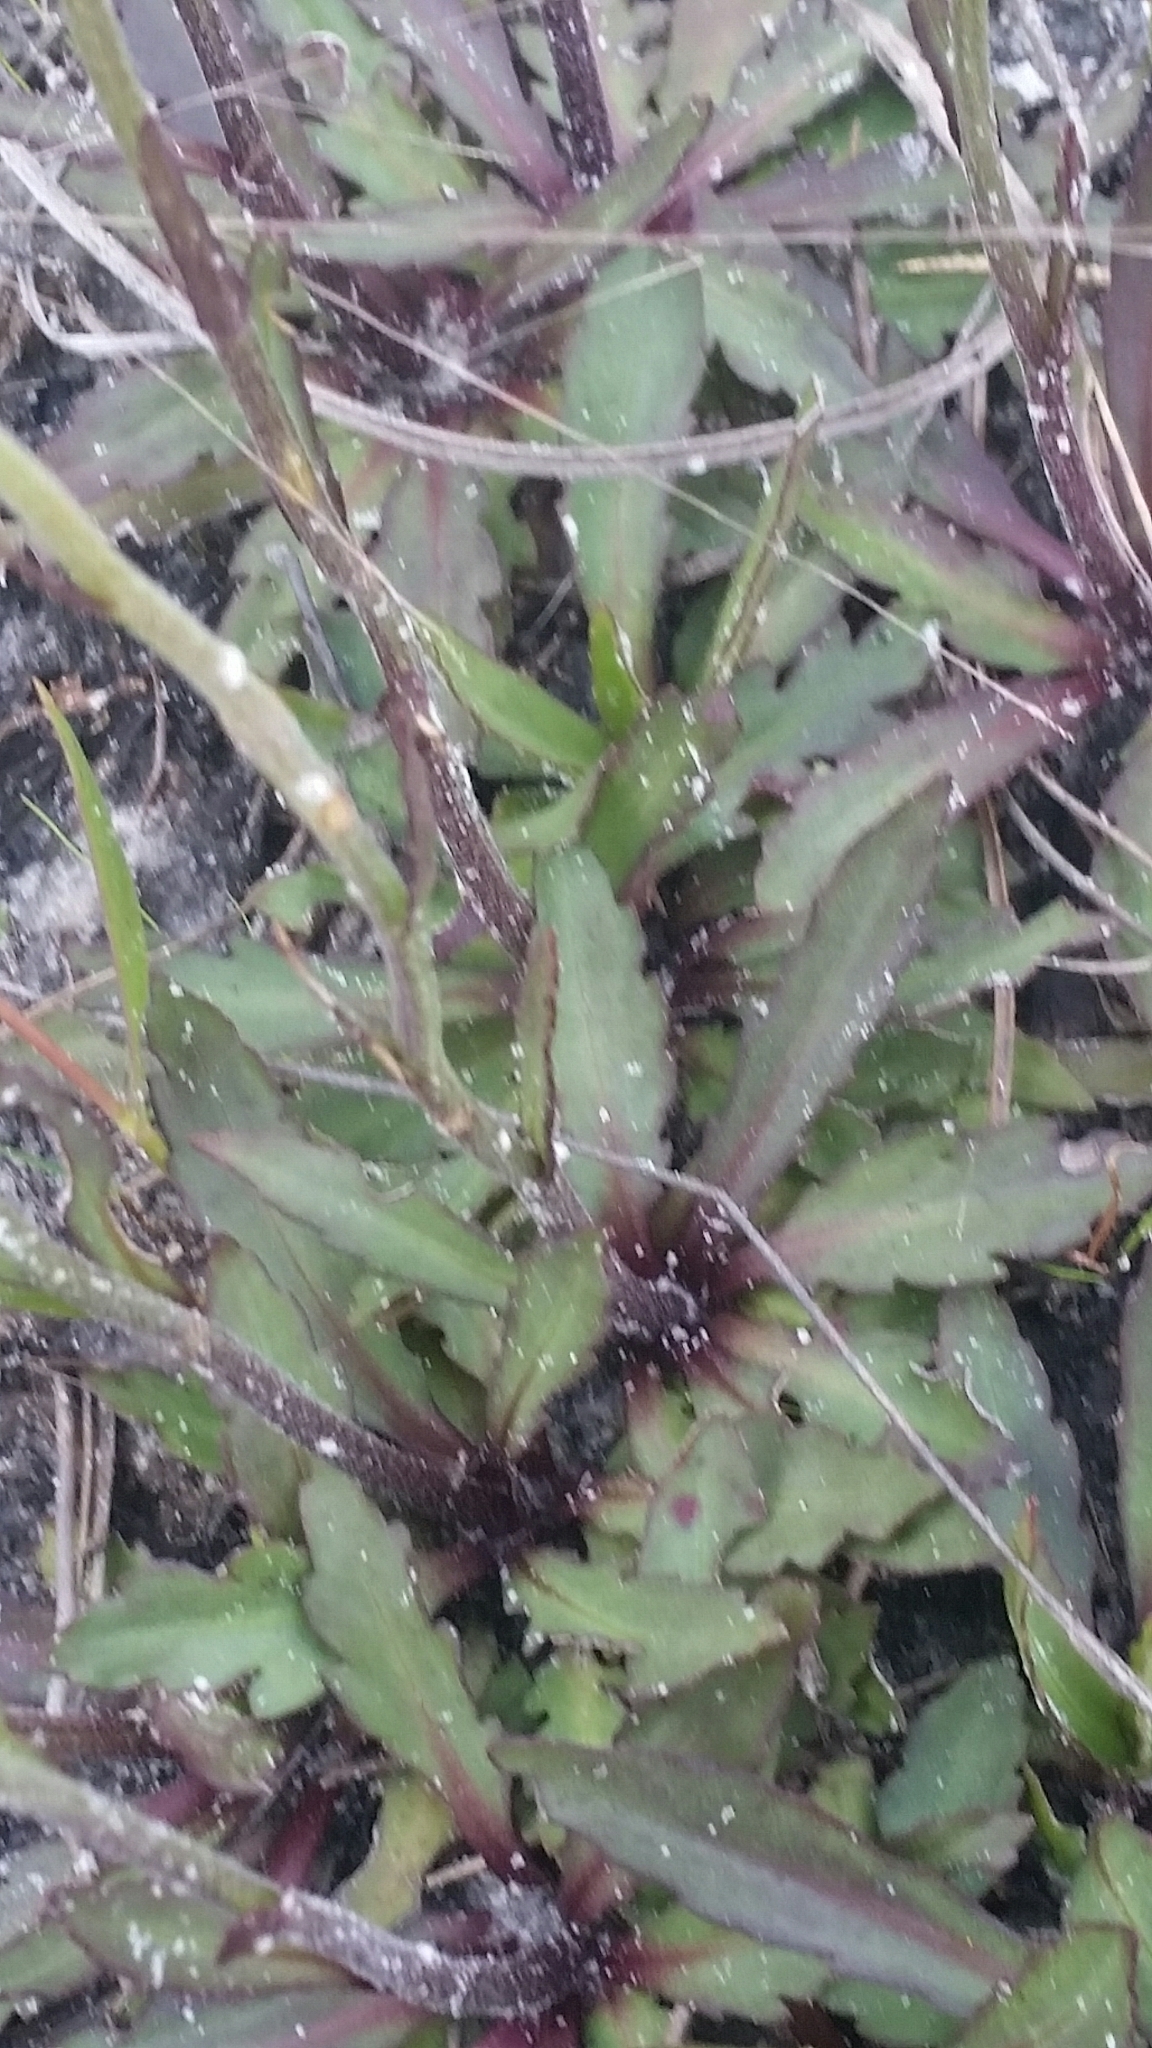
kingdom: Plantae
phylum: Tracheophyta
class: Magnoliopsida
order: Asterales
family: Asteraceae
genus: Helenium
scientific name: Helenium pinnatifidum
